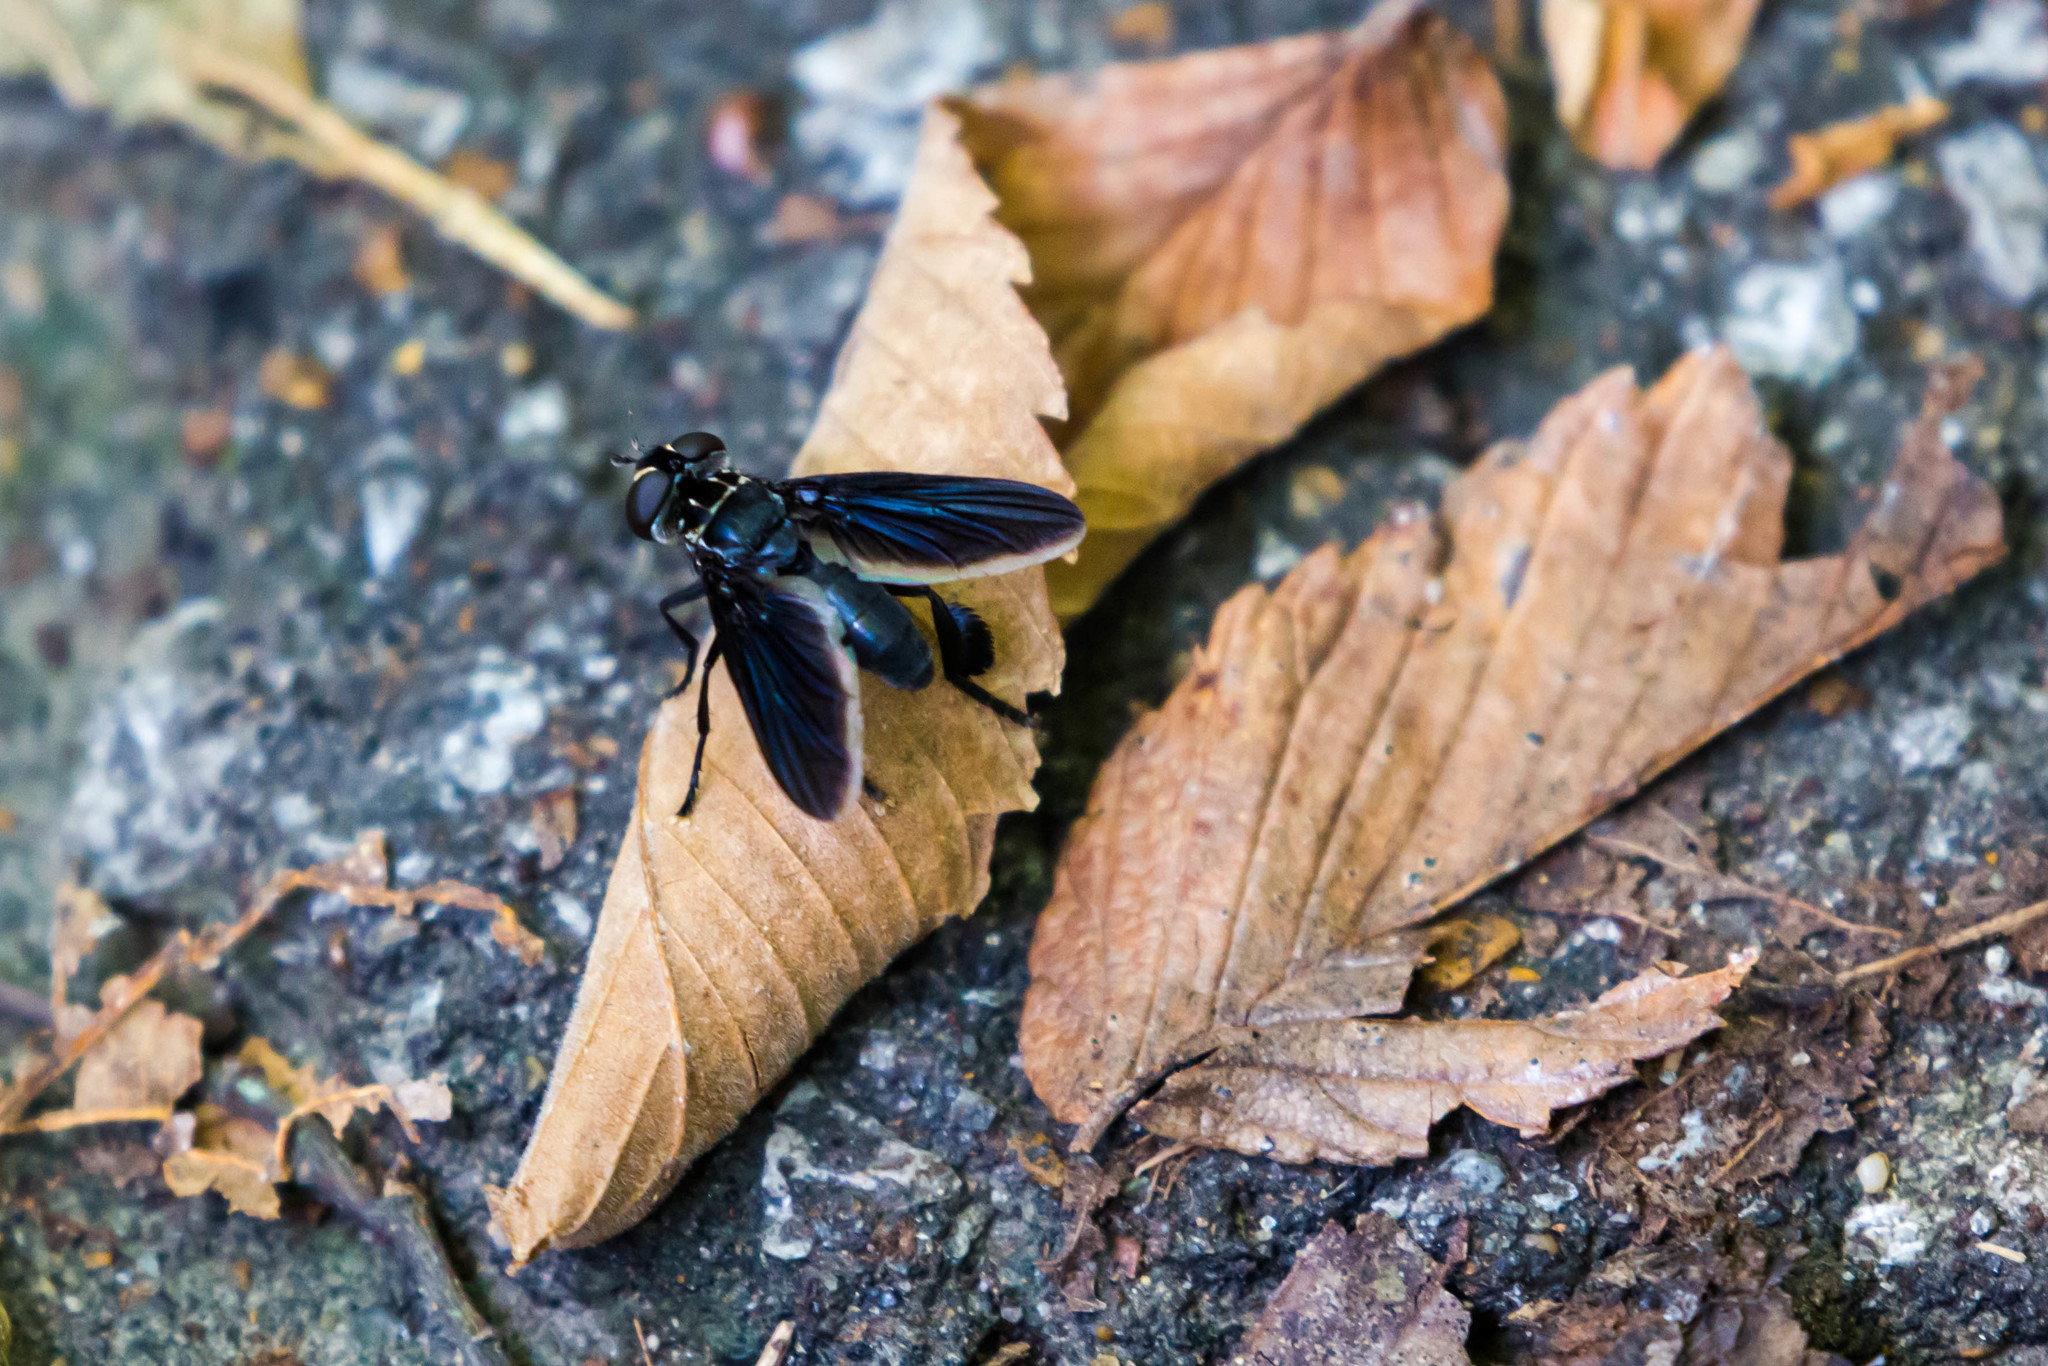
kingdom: Animalia
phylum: Arthropoda
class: Insecta
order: Diptera
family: Tachinidae
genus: Trichopoda
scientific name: Trichopoda lanipes
